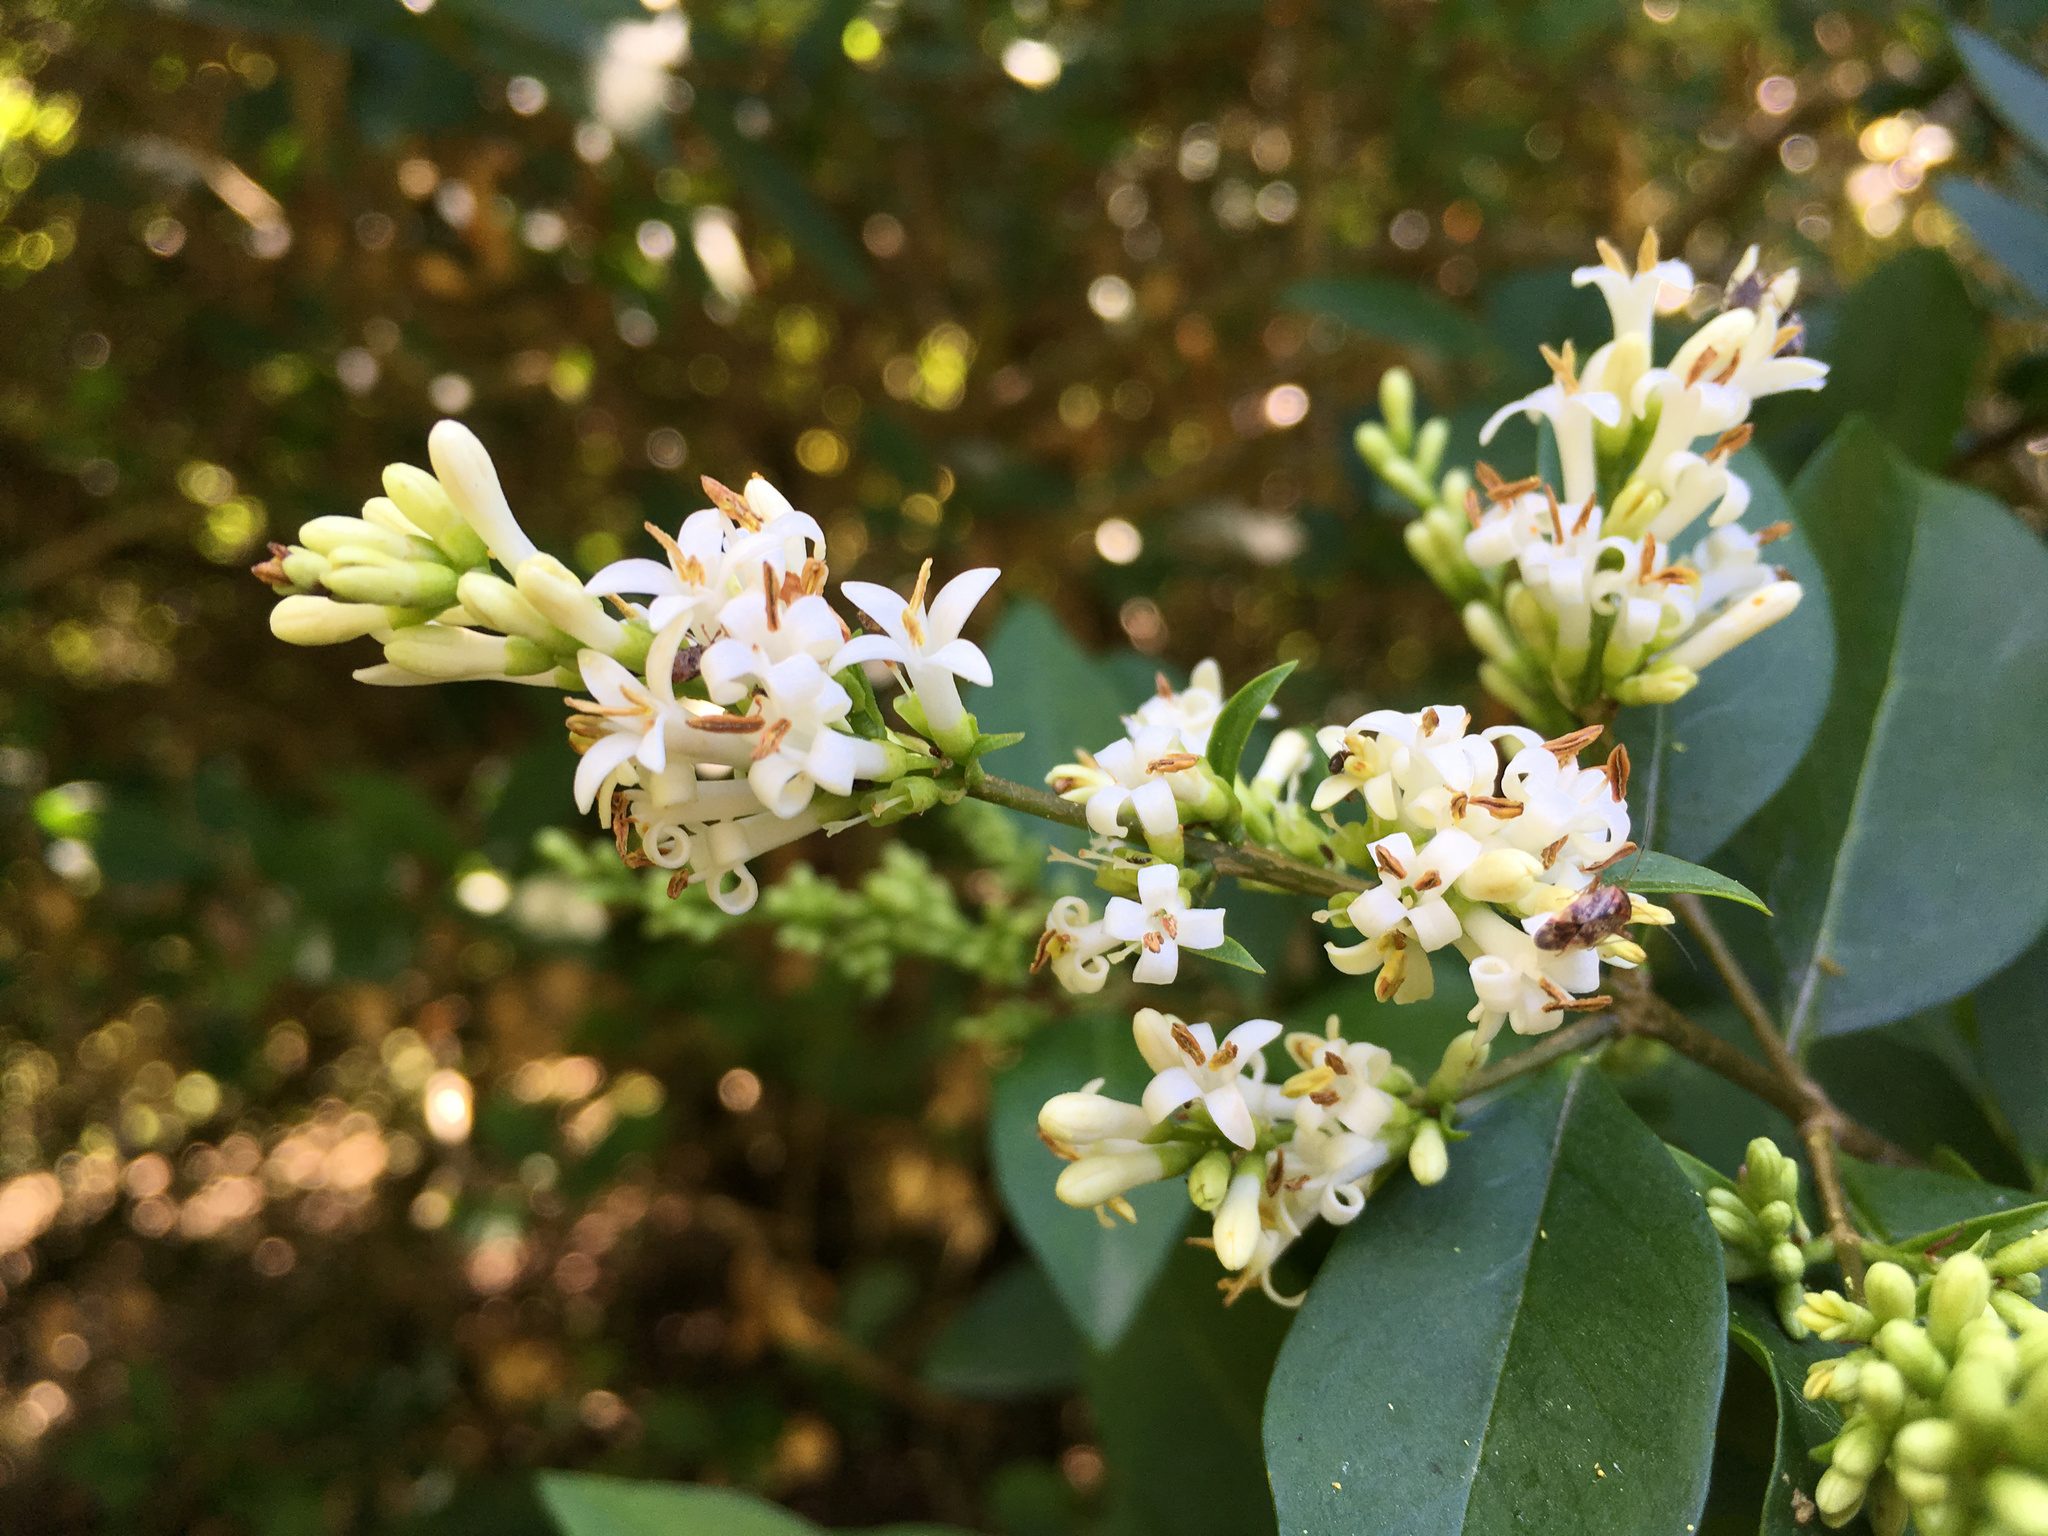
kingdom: Plantae
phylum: Tracheophyta
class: Magnoliopsida
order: Lamiales
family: Oleaceae
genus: Ligustrum
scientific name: Ligustrum vulgare
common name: Wild privet
